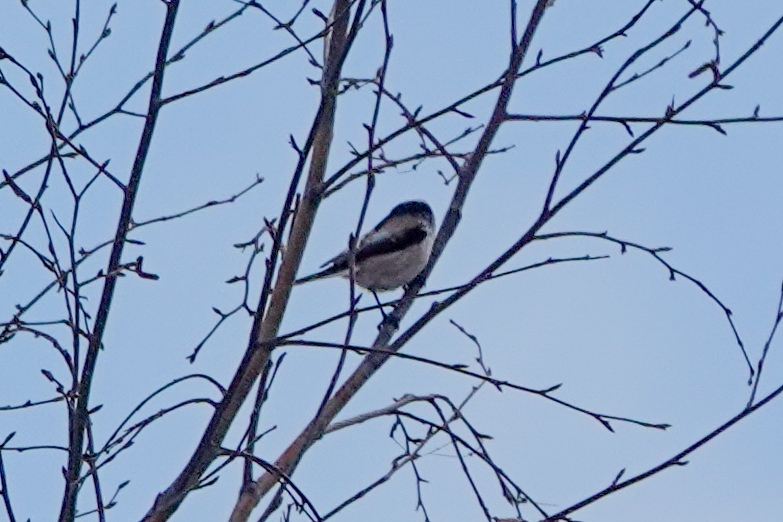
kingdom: Animalia
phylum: Chordata
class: Aves
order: Passeriformes
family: Aegithalidae
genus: Aegithalos
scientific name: Aegithalos caudatus
